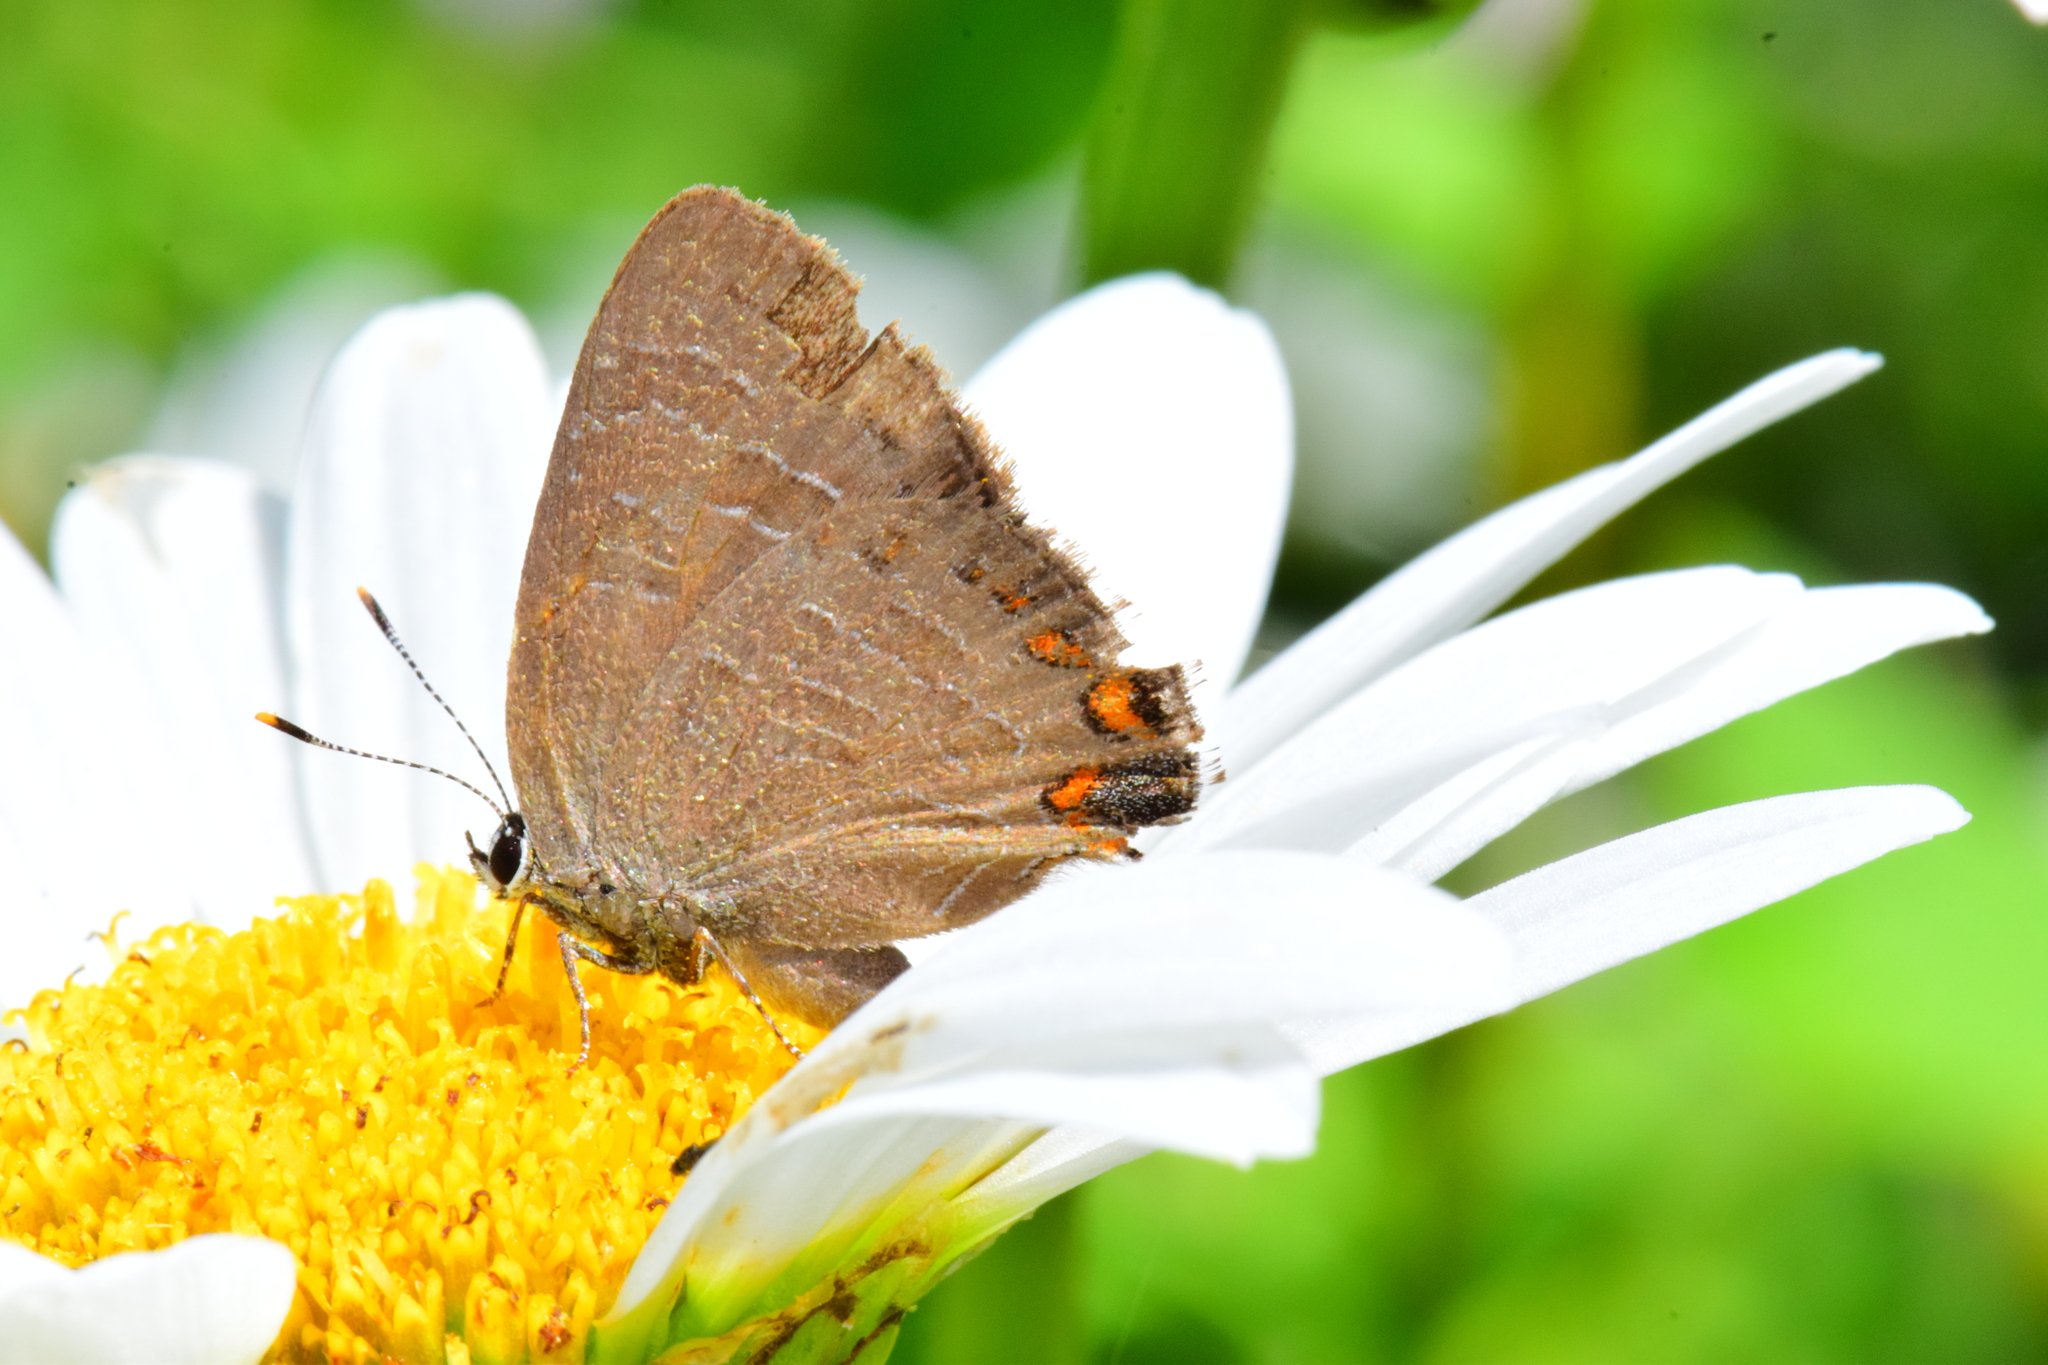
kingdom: Animalia
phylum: Arthropoda
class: Insecta
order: Lepidoptera
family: Lycaenidae
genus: Satyrium
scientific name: Satyrium liparops
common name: Striped hairstreak
